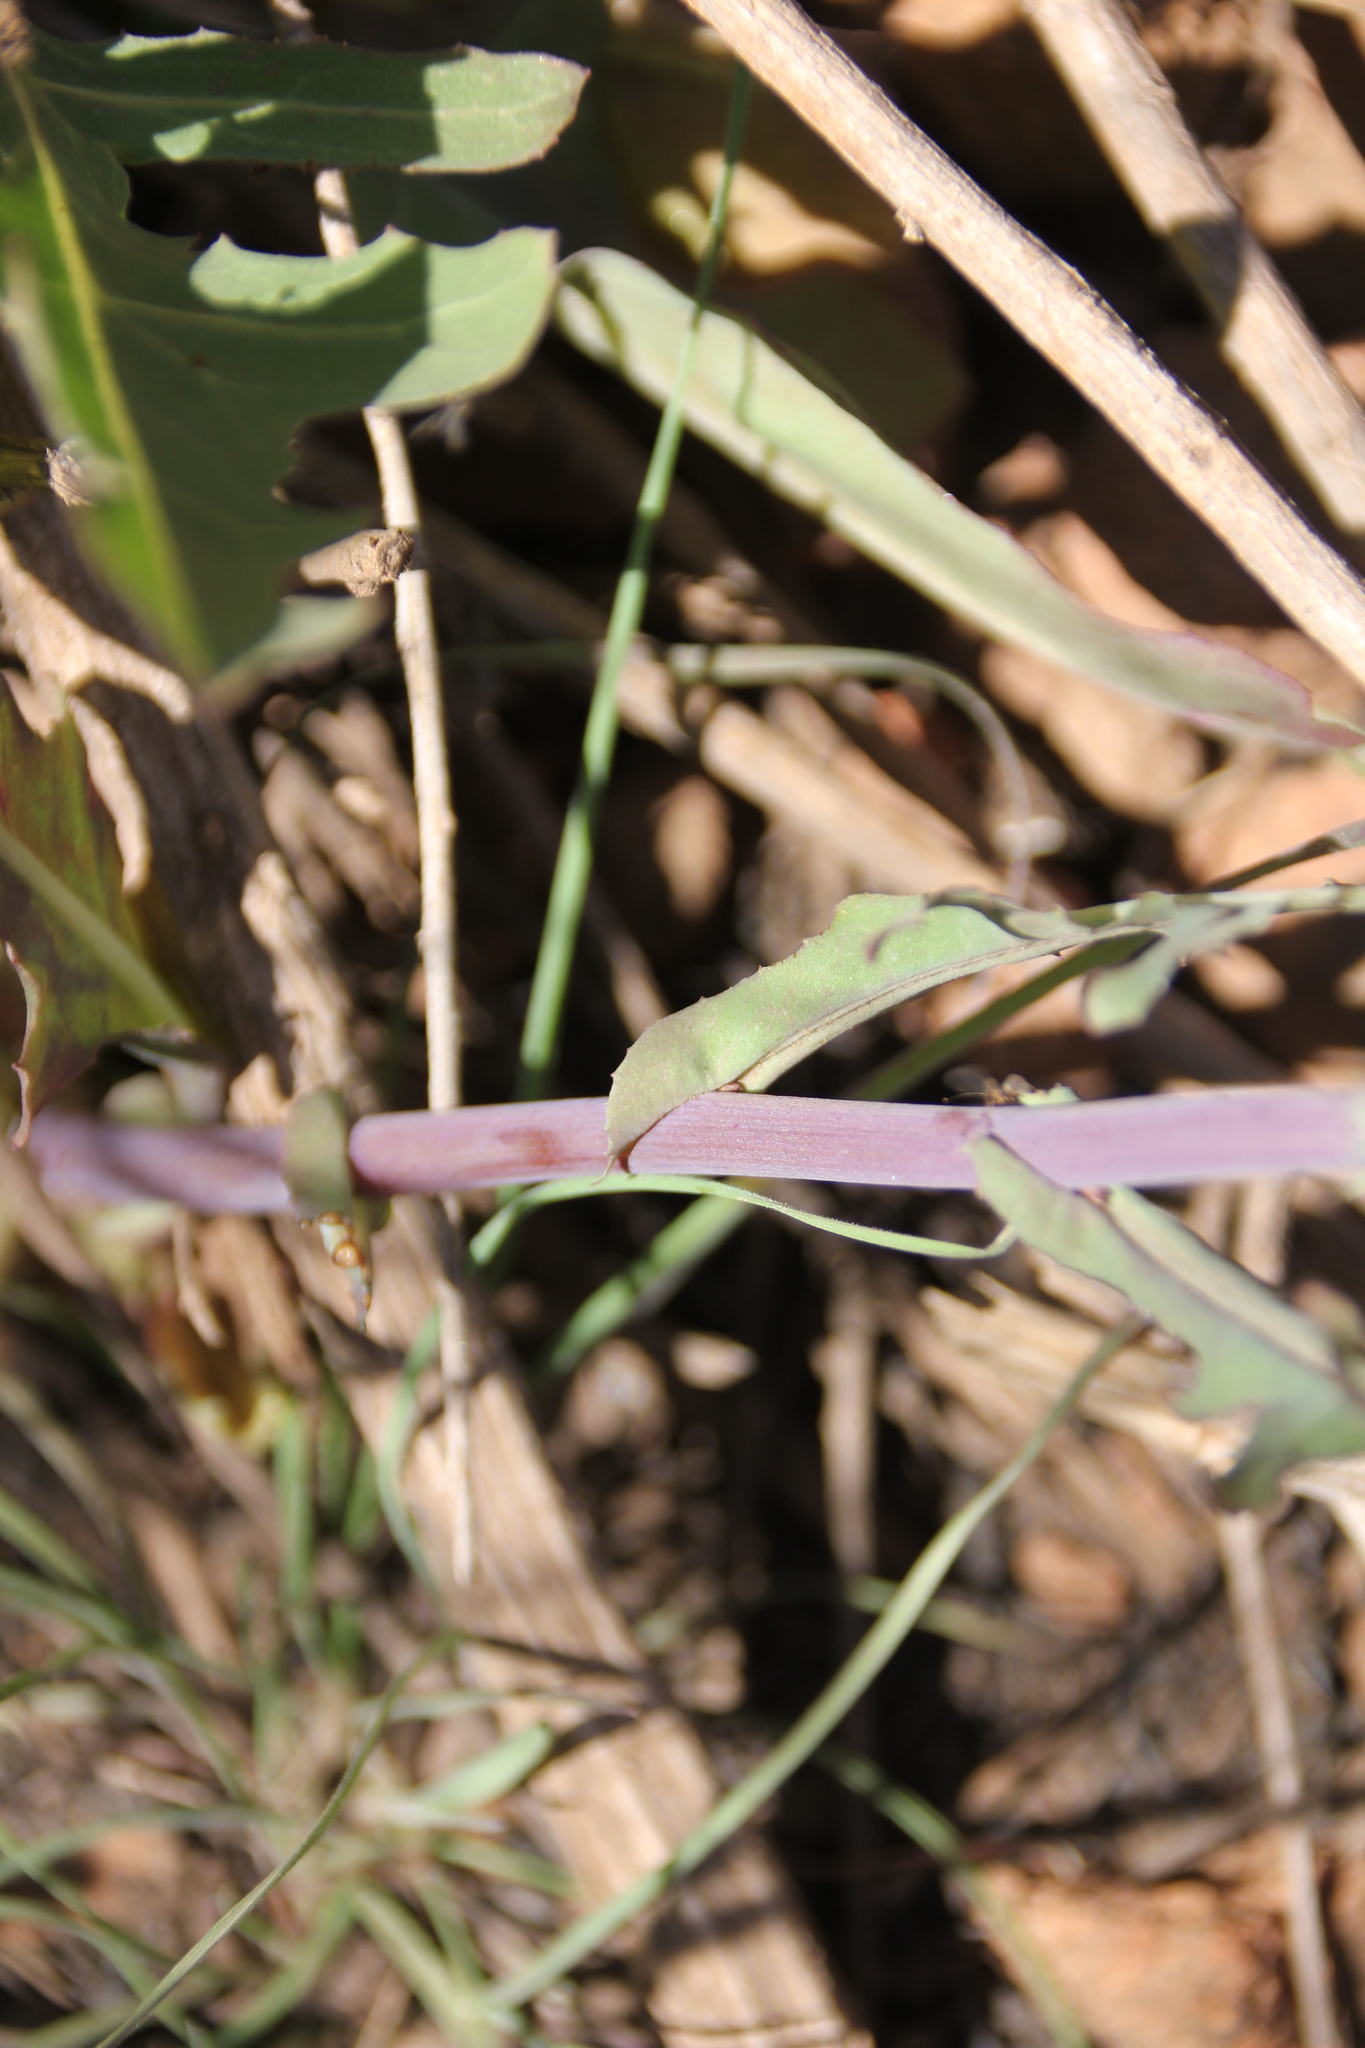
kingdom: Plantae
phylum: Tracheophyta
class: Magnoliopsida
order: Asterales
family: Asteraceae
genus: Rafinesquia
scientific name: Rafinesquia californica
